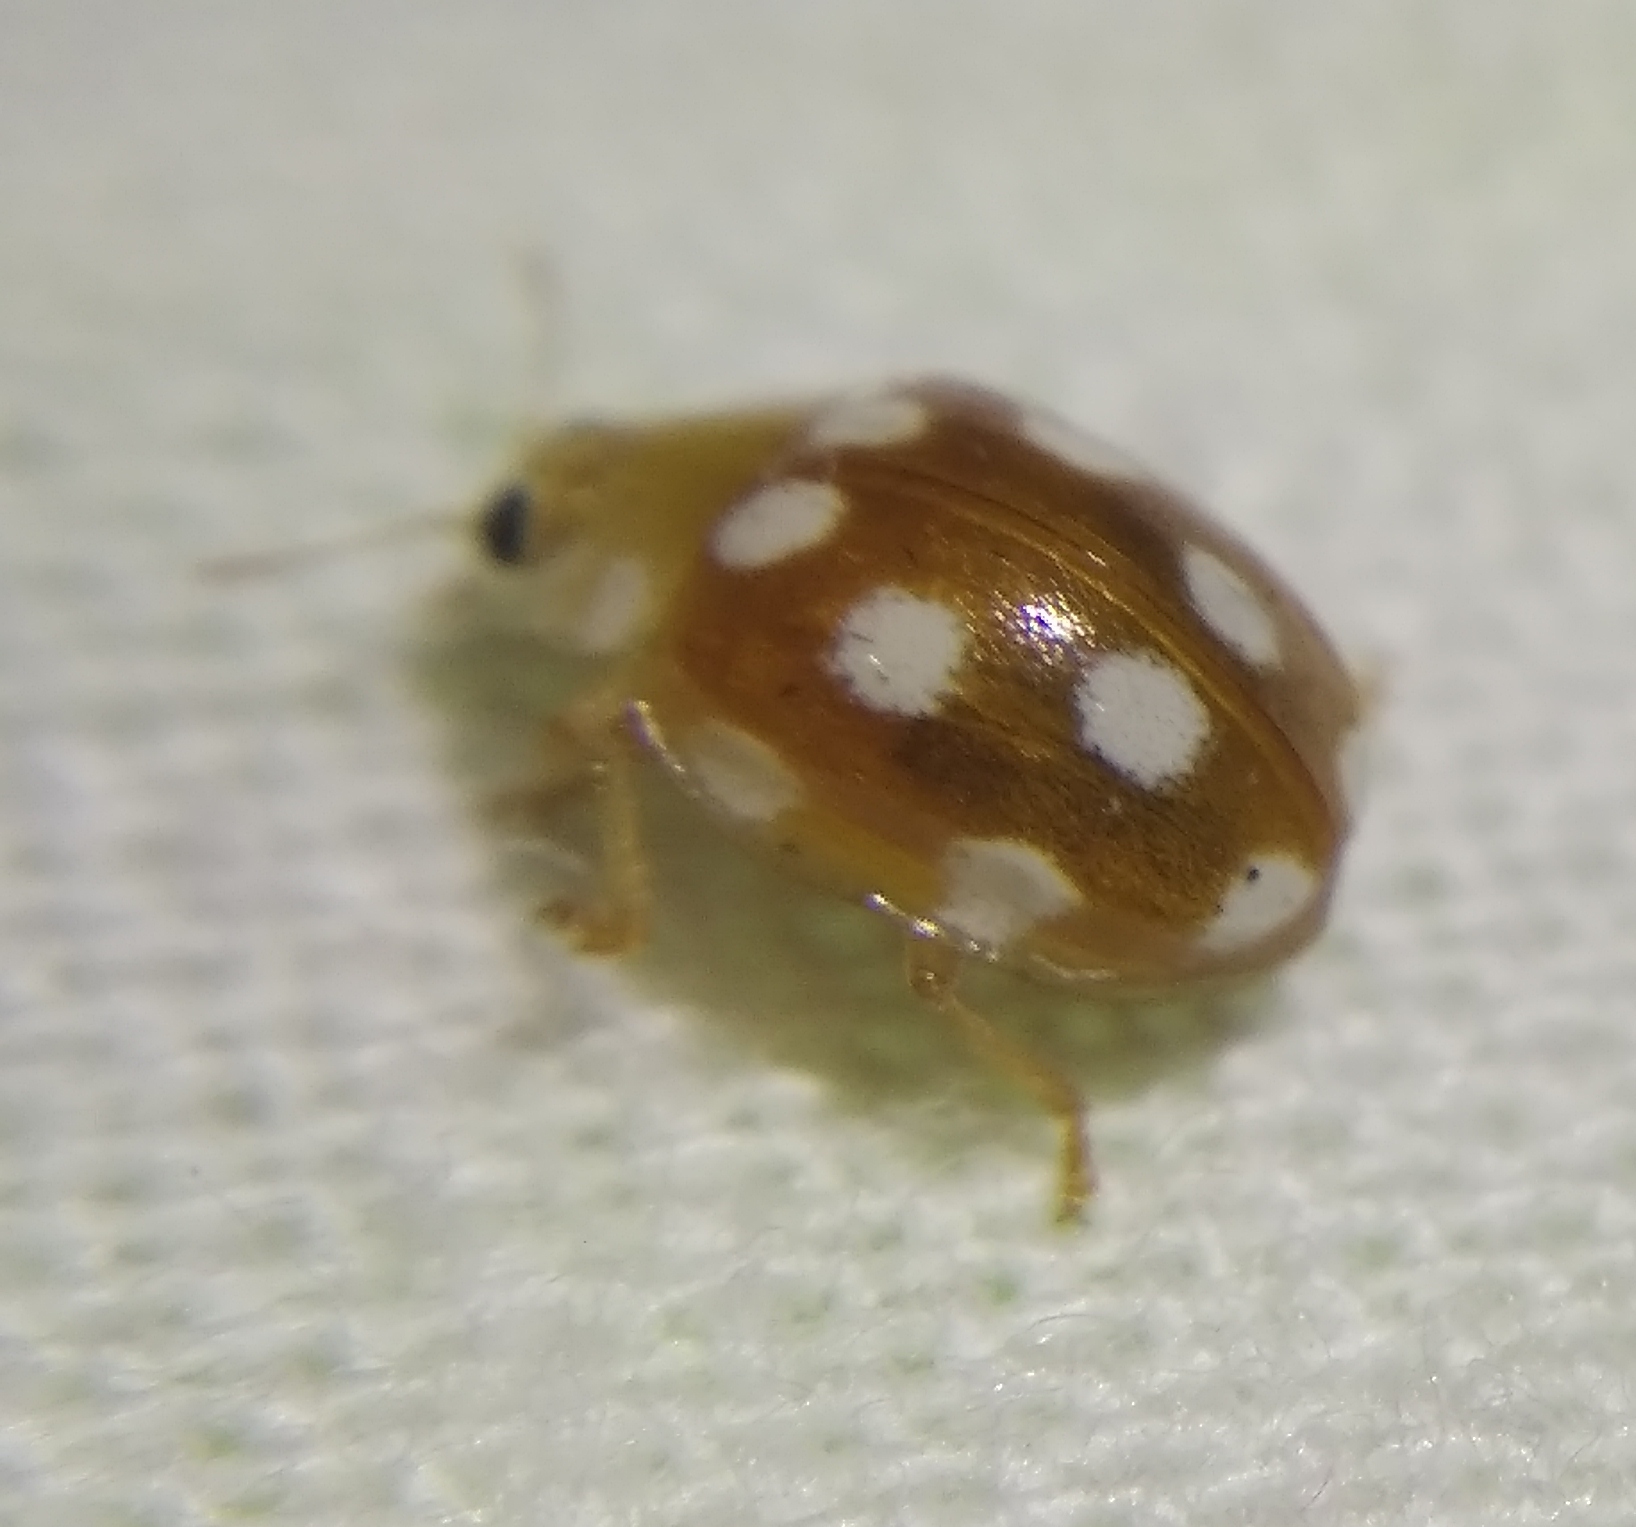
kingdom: Animalia
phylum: Arthropoda
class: Insecta
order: Coleoptera
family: Coccinellidae
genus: Vibidia
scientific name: Vibidia duodecimguttata
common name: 12-spot ladybird
